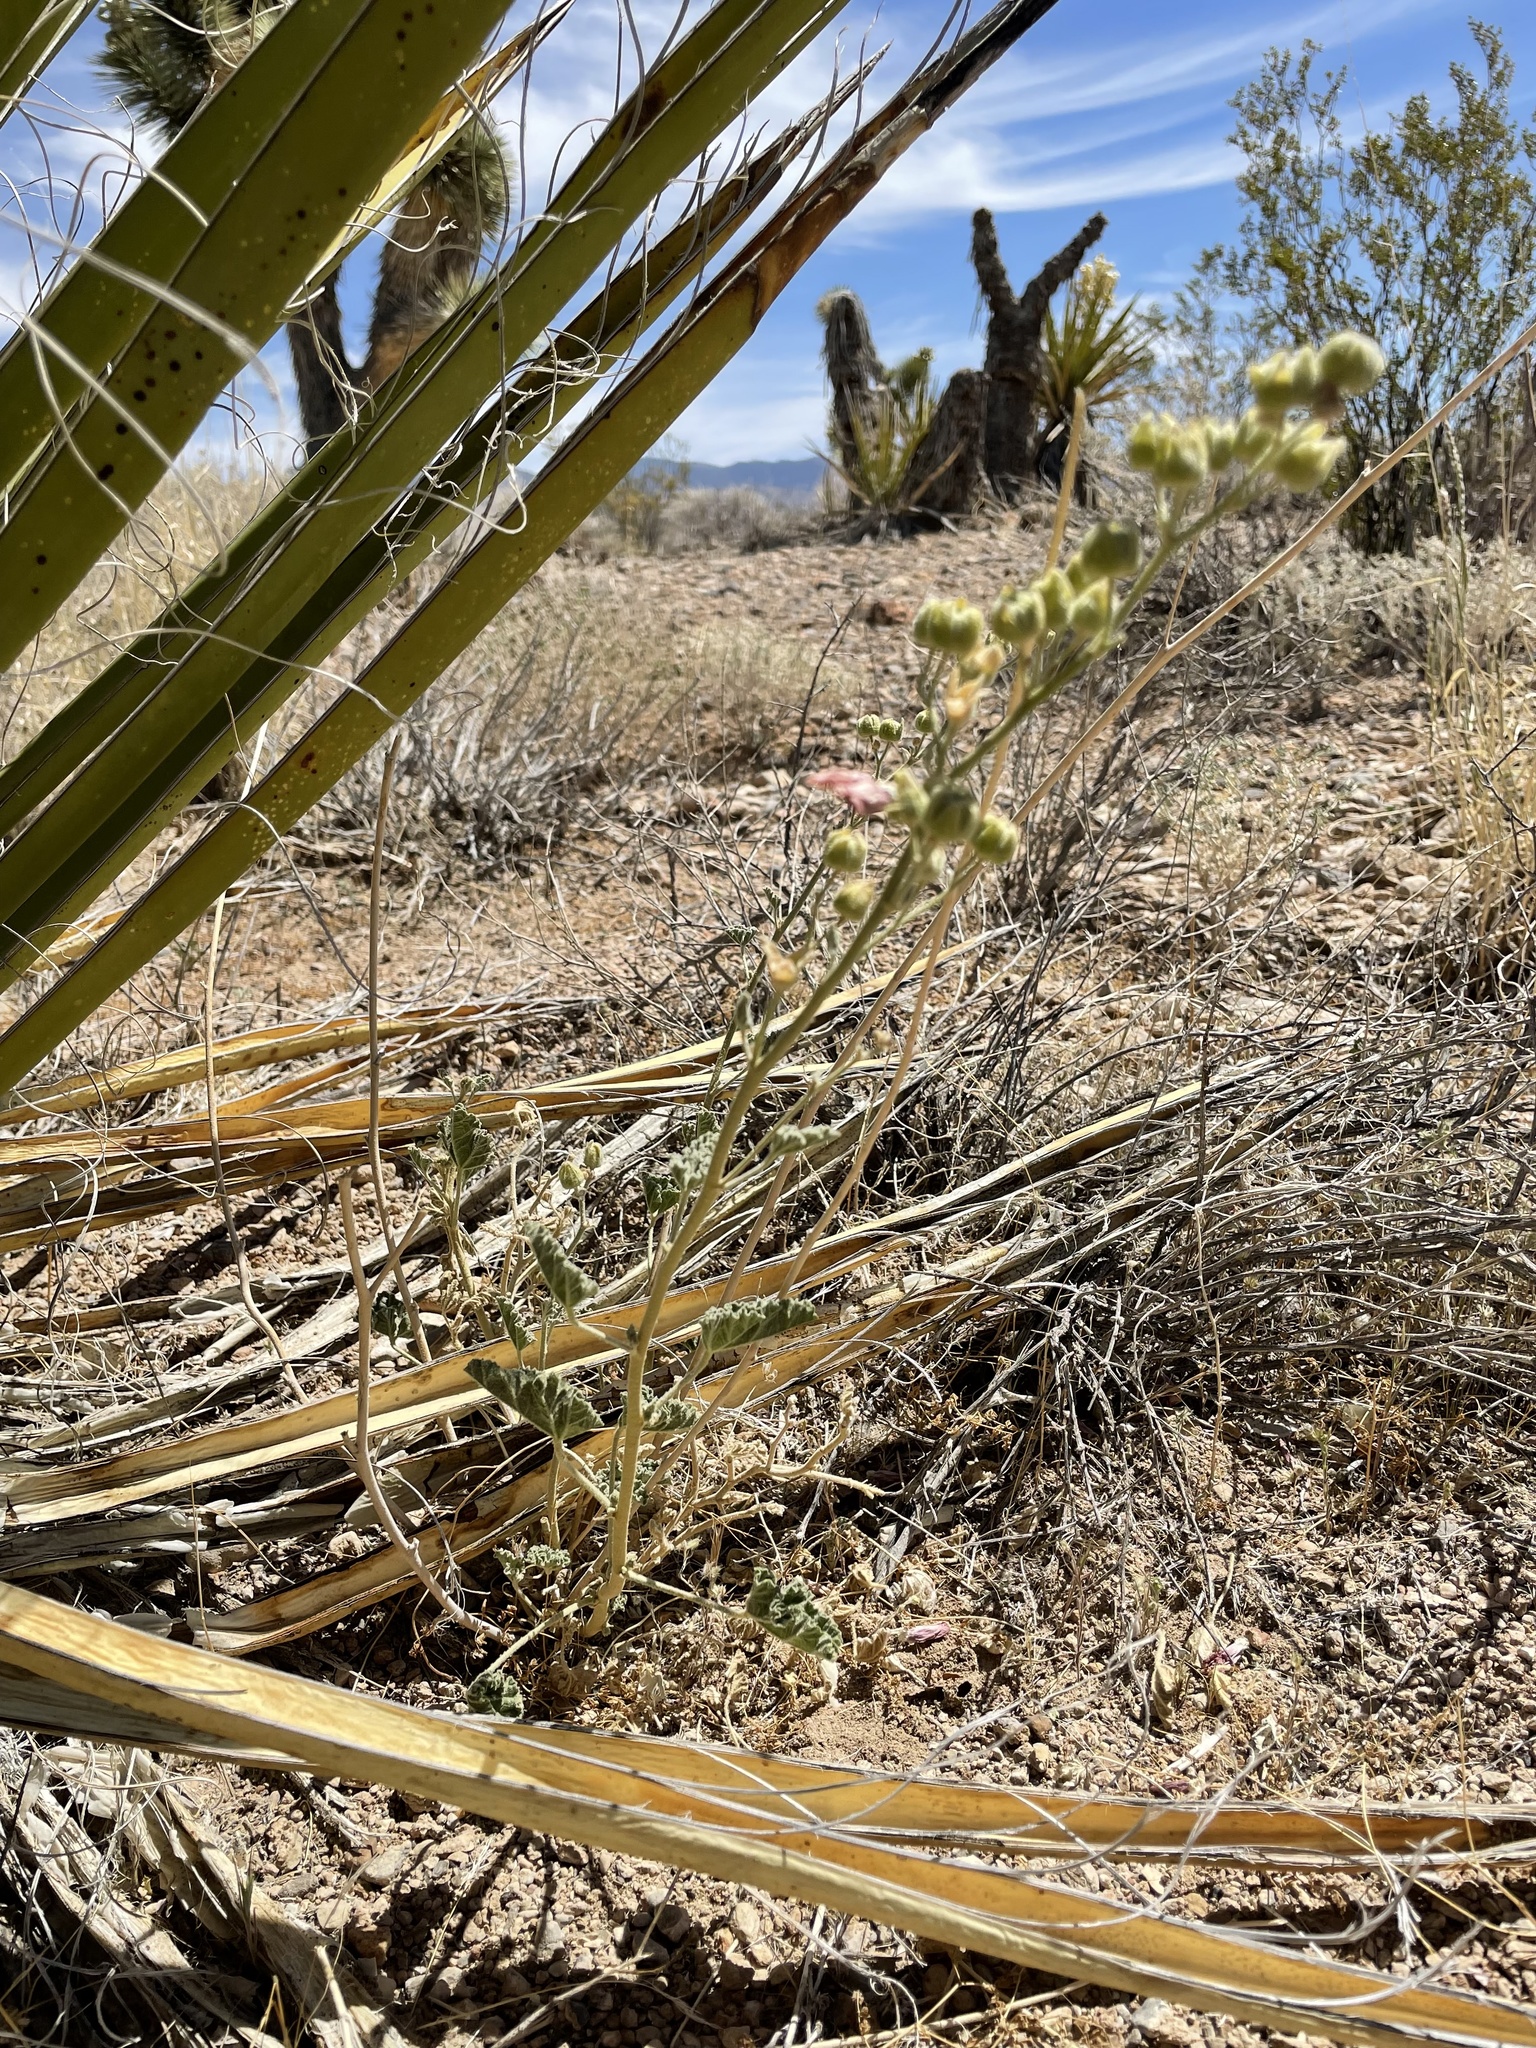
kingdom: Plantae
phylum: Tracheophyta
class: Magnoliopsida
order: Malvales
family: Malvaceae
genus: Sphaeralcea
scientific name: Sphaeralcea ambigua
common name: Apricot globe-mallow
